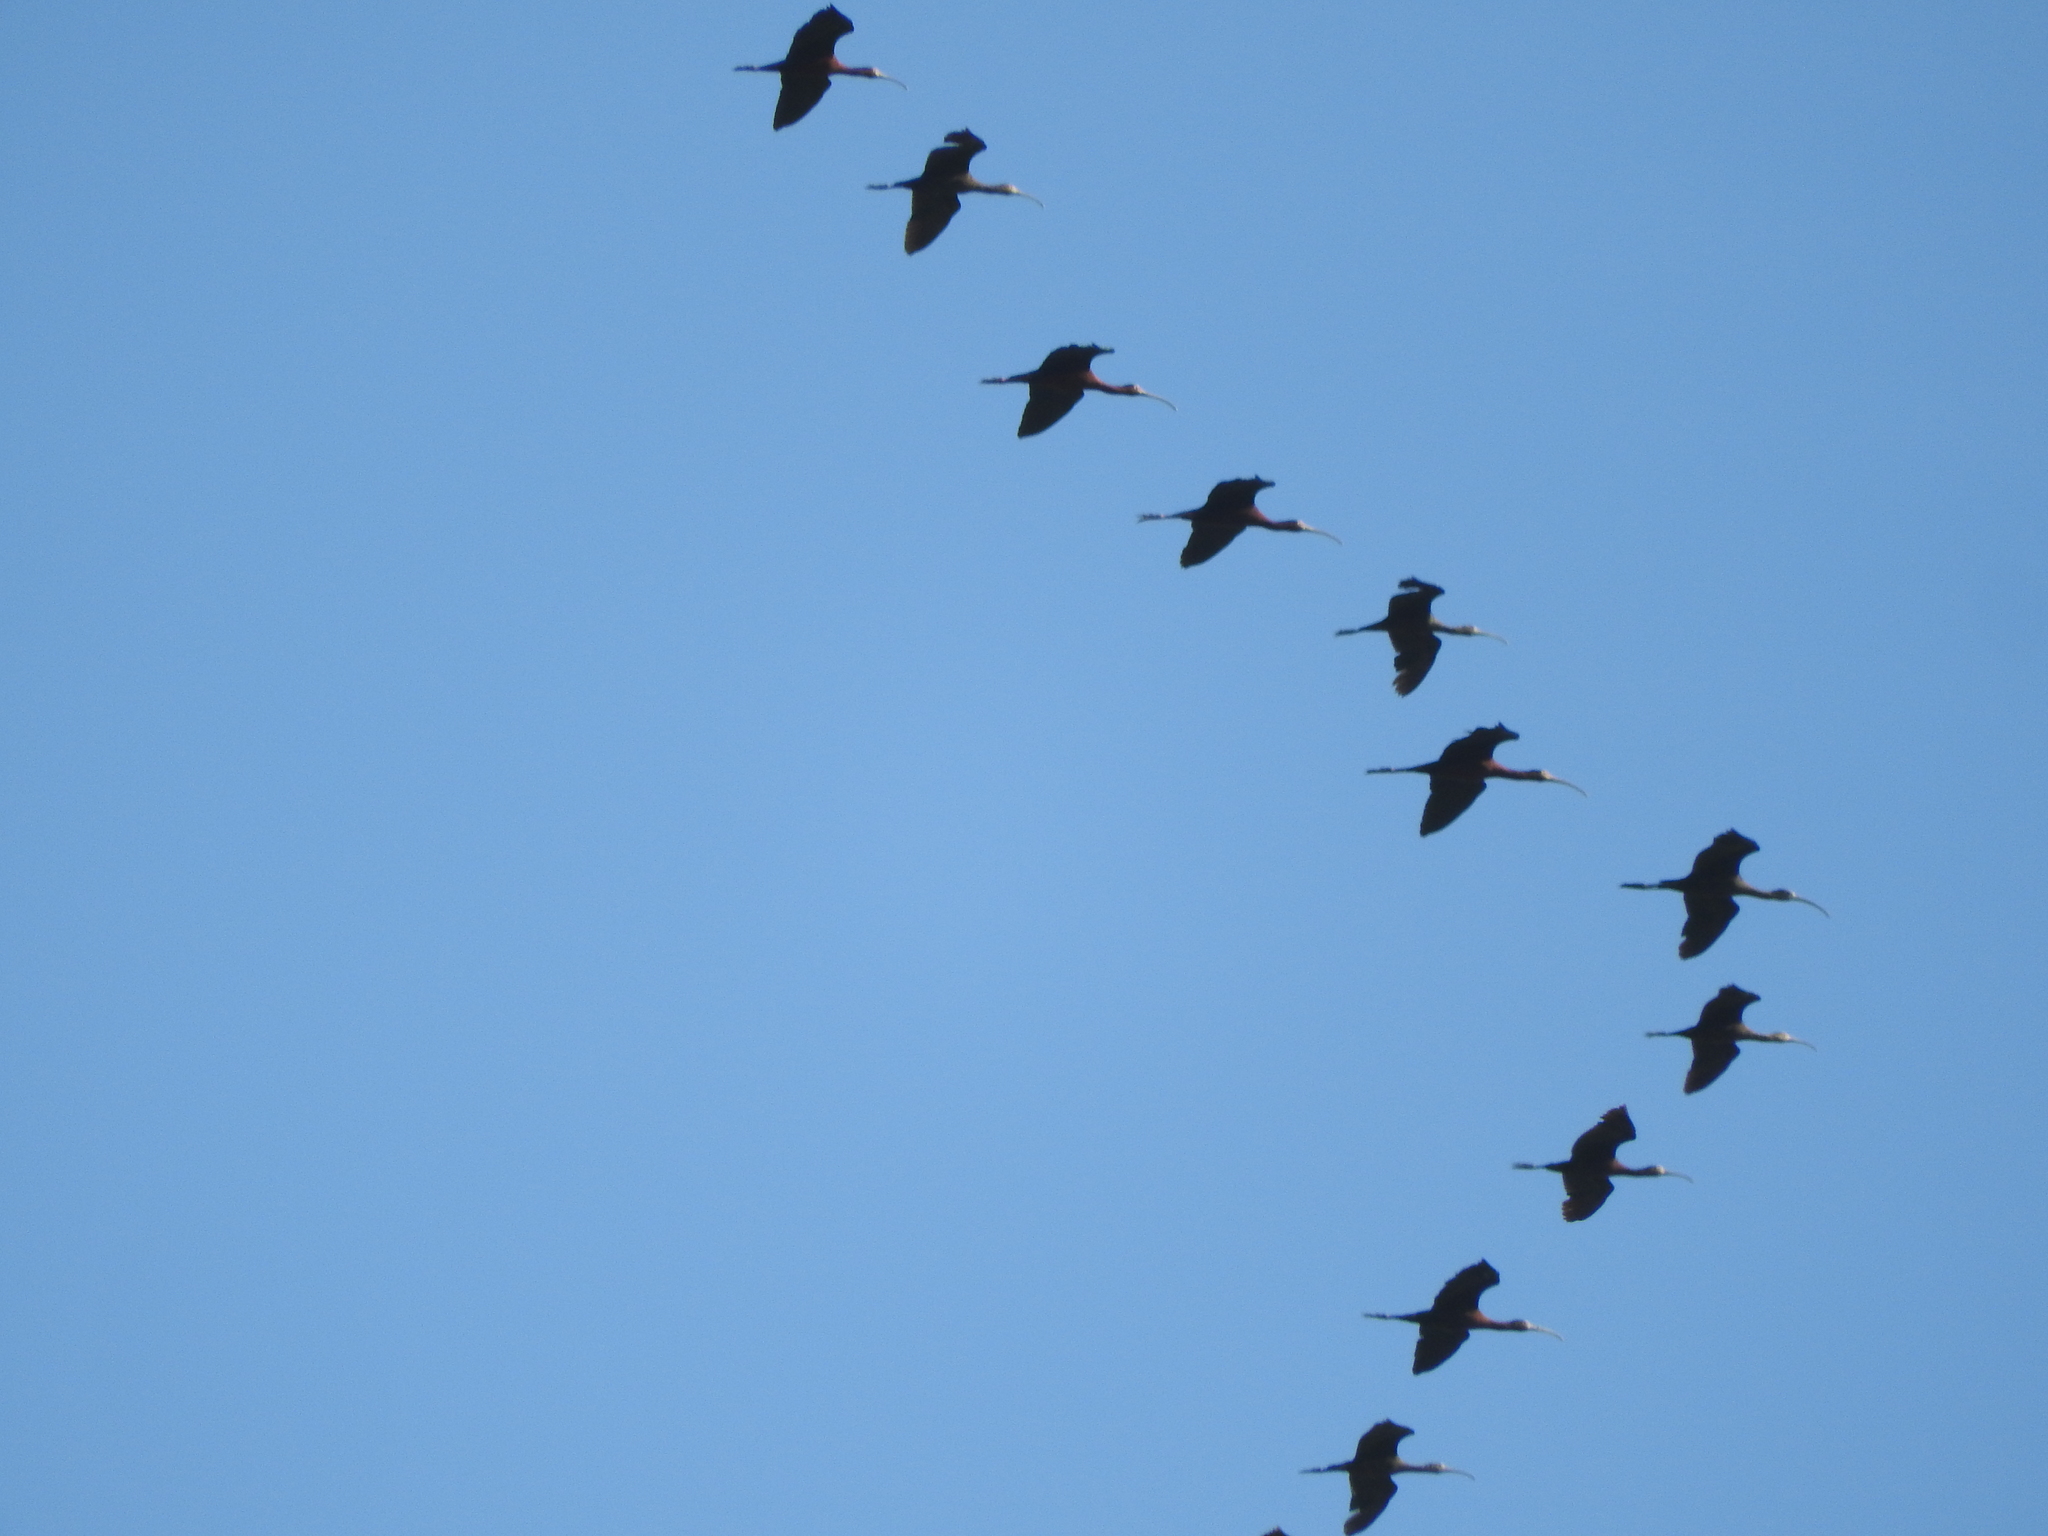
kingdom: Animalia
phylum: Chordata
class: Aves
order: Pelecaniformes
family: Threskiornithidae
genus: Plegadis
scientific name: Plegadis chihi
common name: White-faced ibis
